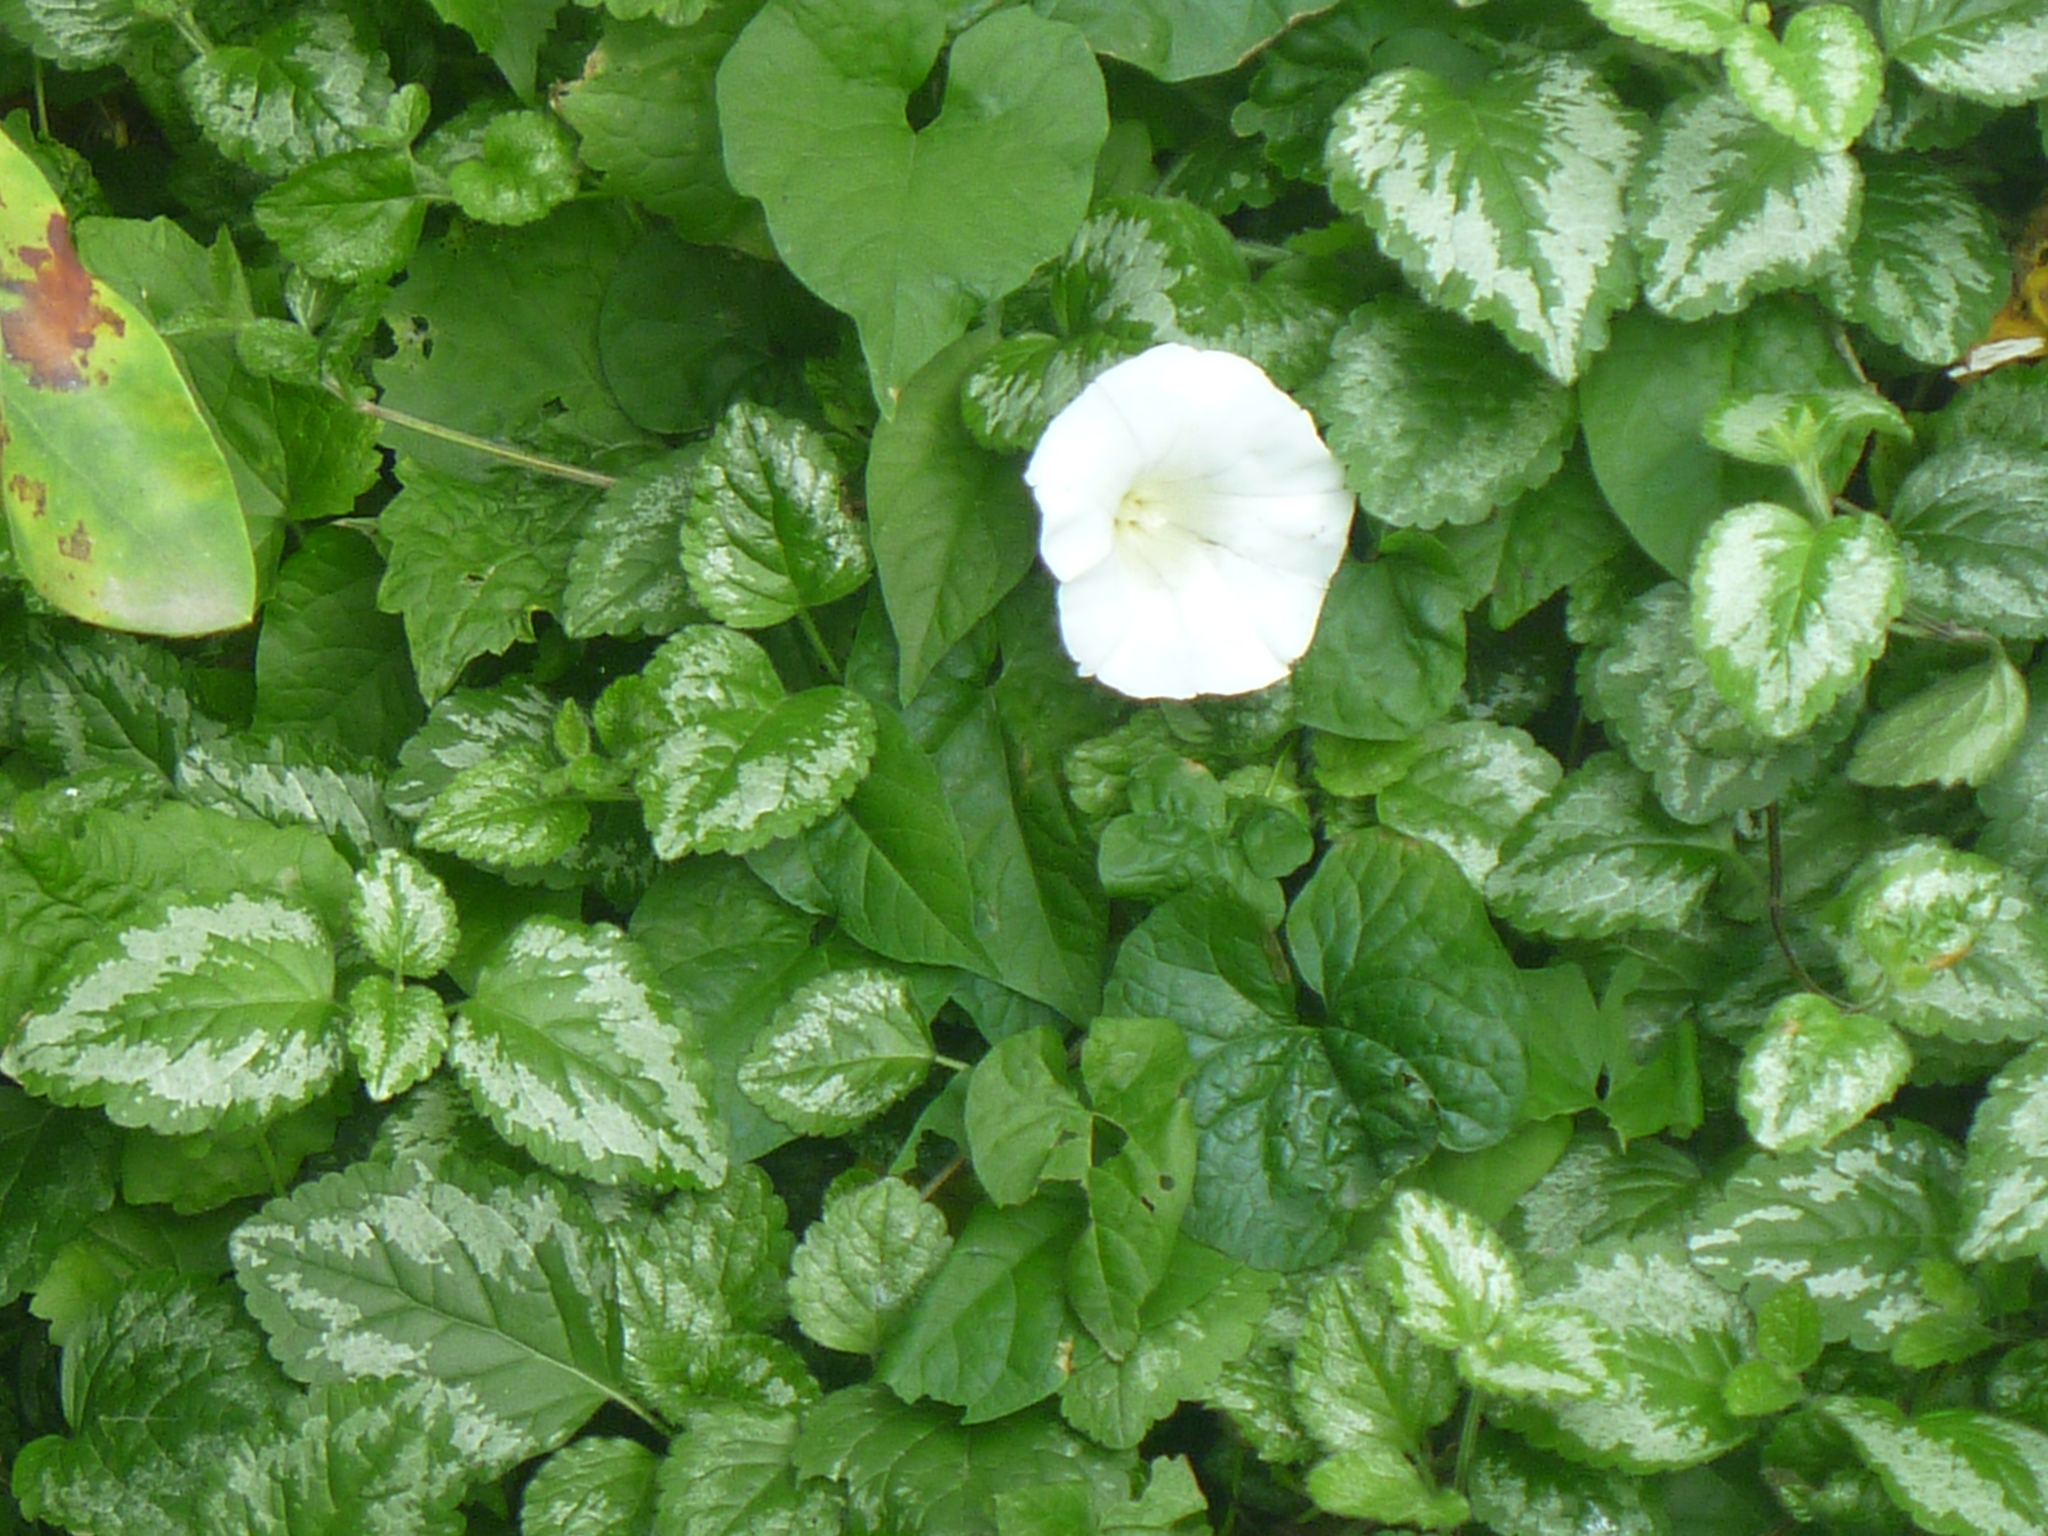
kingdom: Plantae
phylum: Tracheophyta
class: Magnoliopsida
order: Solanales
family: Convolvulaceae
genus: Calystegia
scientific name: Calystegia silvatica
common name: Large bindweed
